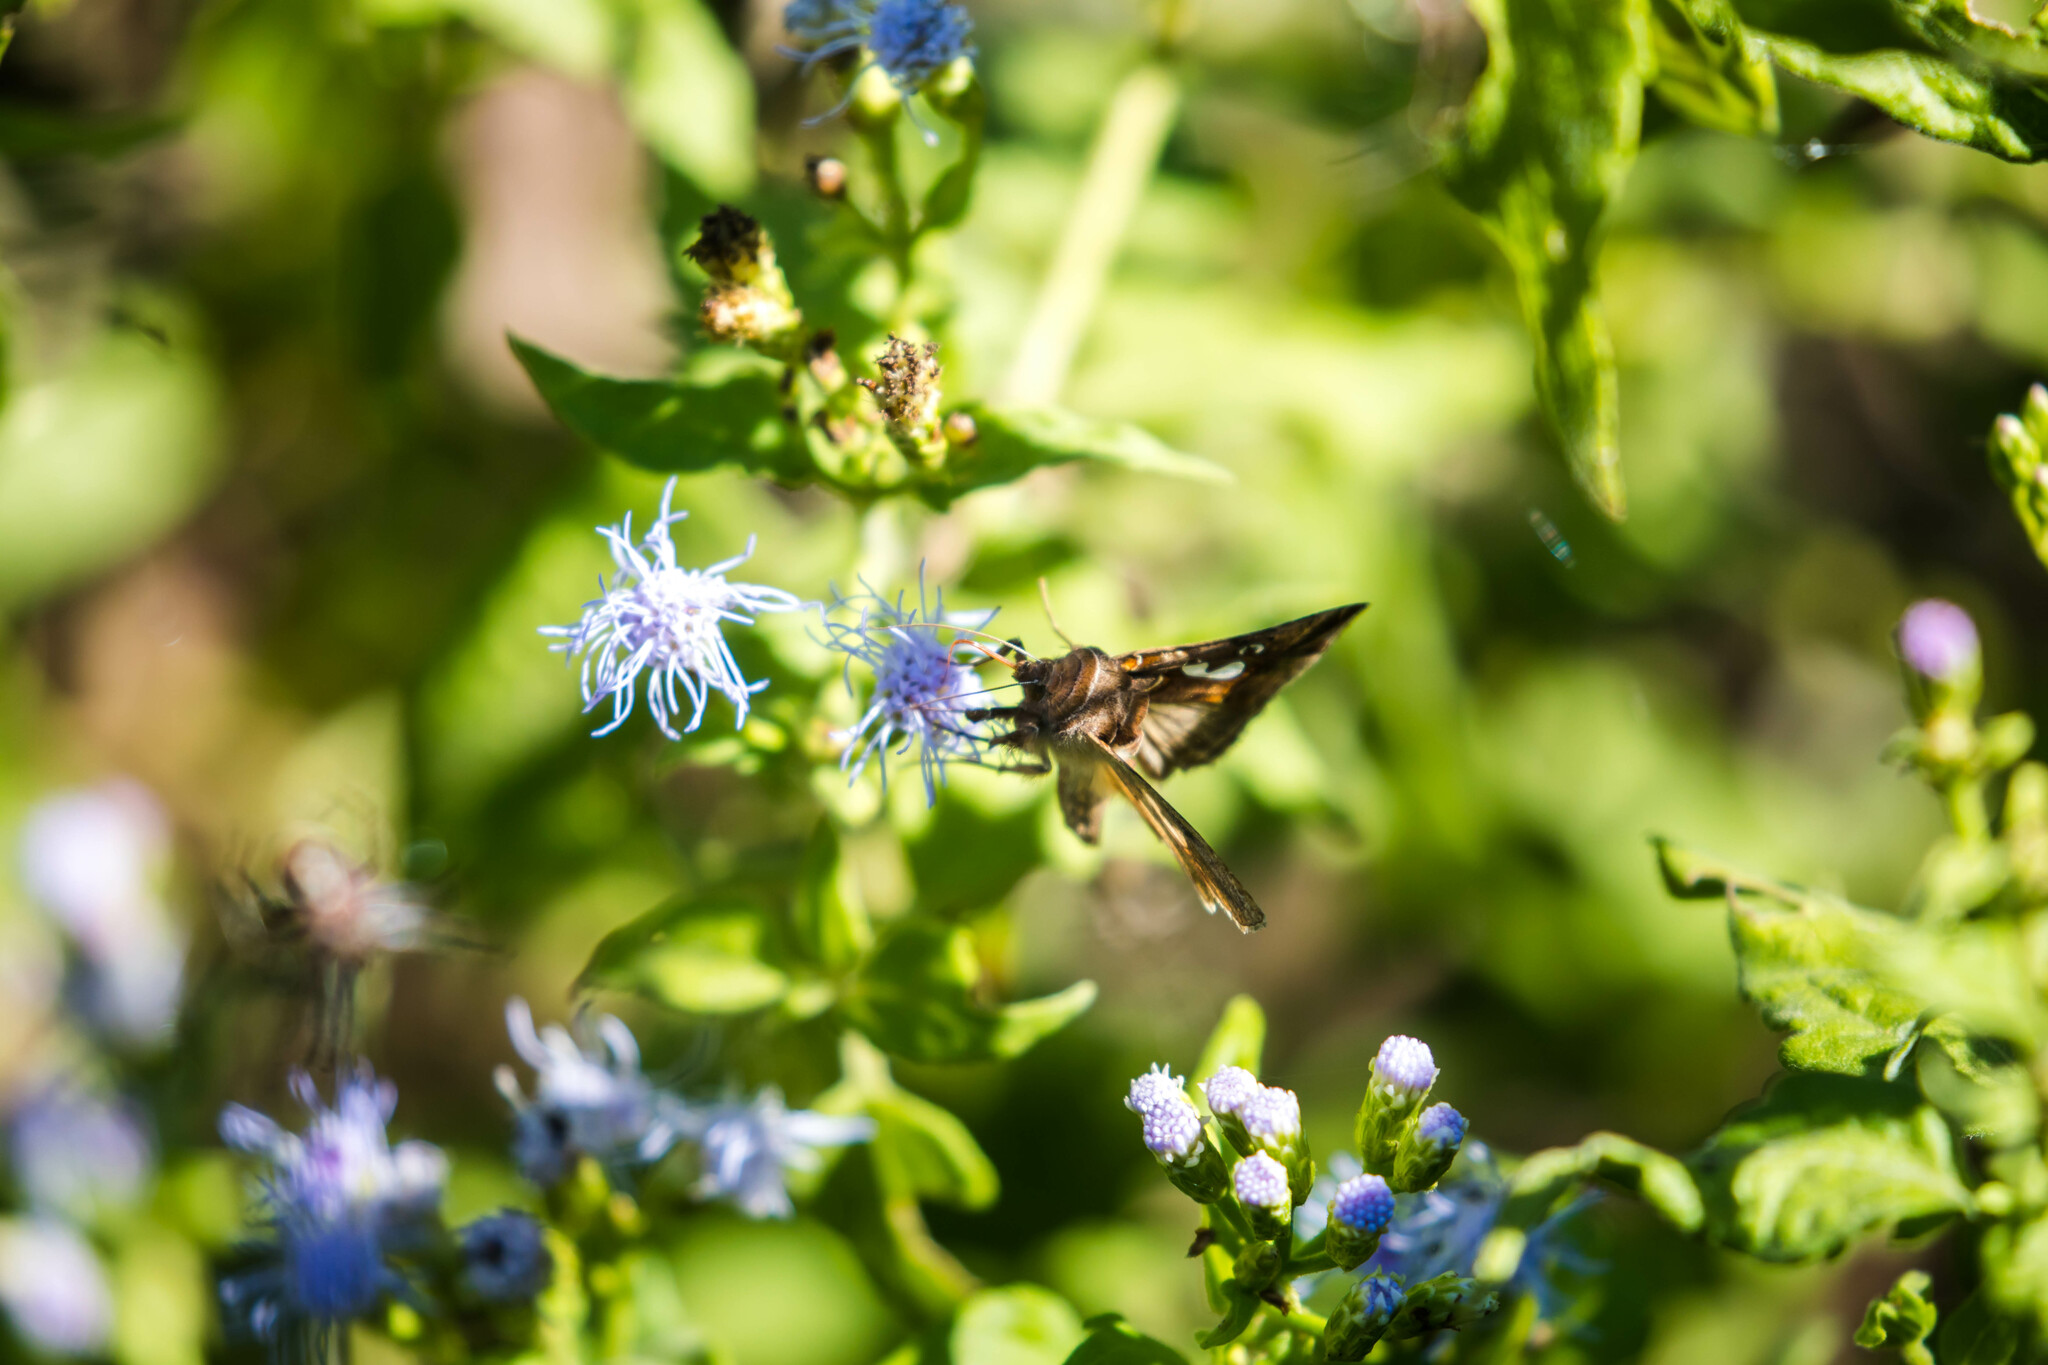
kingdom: Animalia
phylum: Arthropoda
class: Insecta
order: Lepidoptera
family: Noctuidae
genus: Megalographa
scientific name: Megalographa biloba
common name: Cutworm
